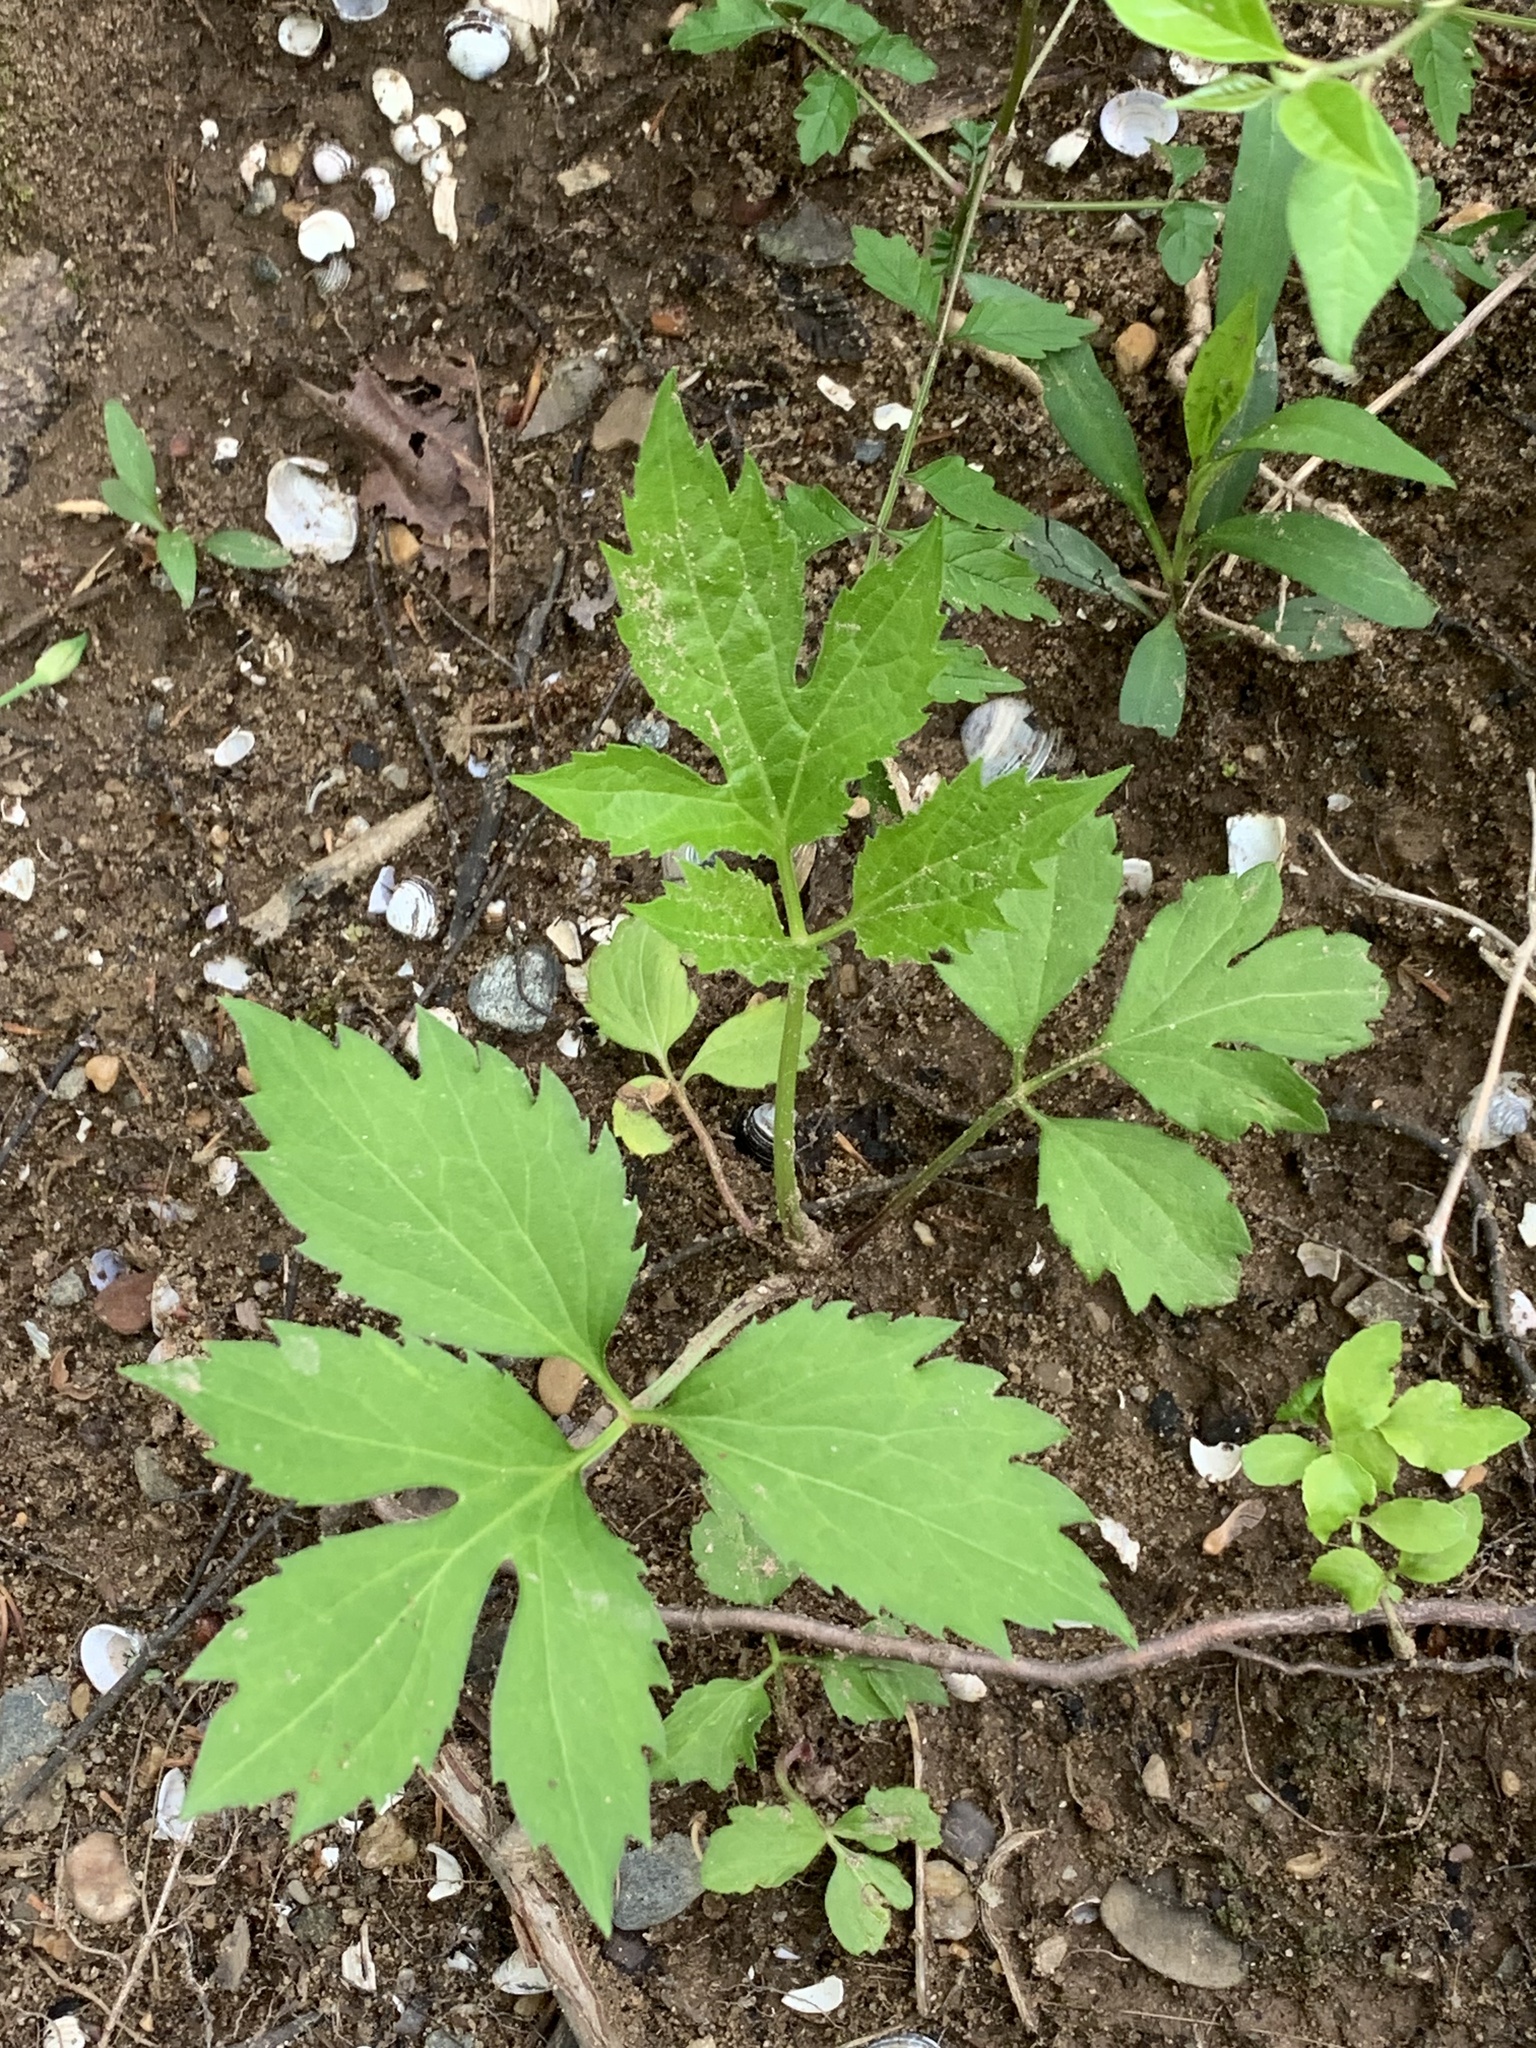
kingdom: Plantae
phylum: Tracheophyta
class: Magnoliopsida
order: Asterales
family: Asteraceae
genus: Artemisia
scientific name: Artemisia annua
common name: Sweet sagewort
